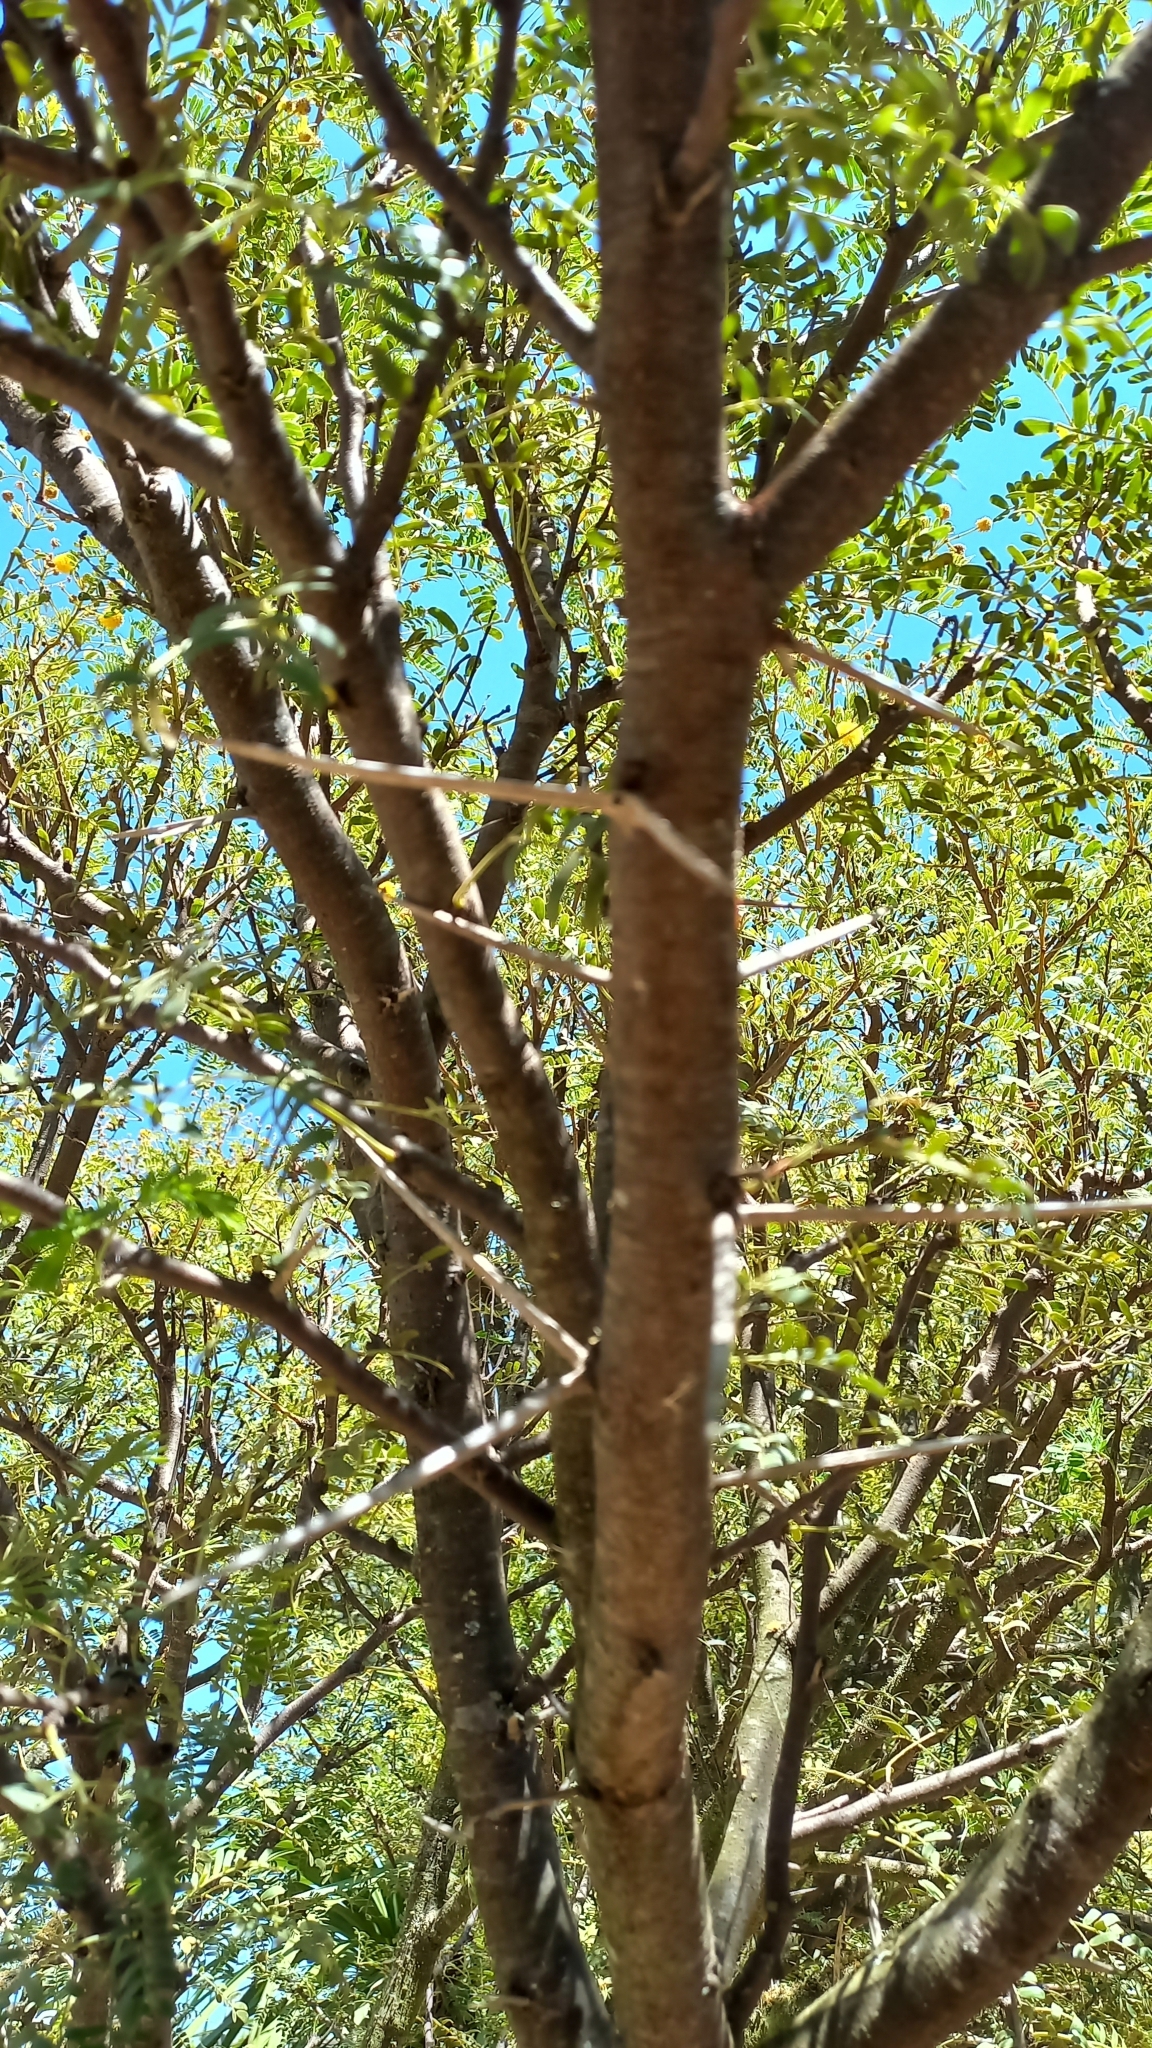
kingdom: Plantae
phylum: Tracheophyta
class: Magnoliopsida
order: Fabales
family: Fabaceae
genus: Vachellia
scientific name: Vachellia karroo
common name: Sweet thorn
